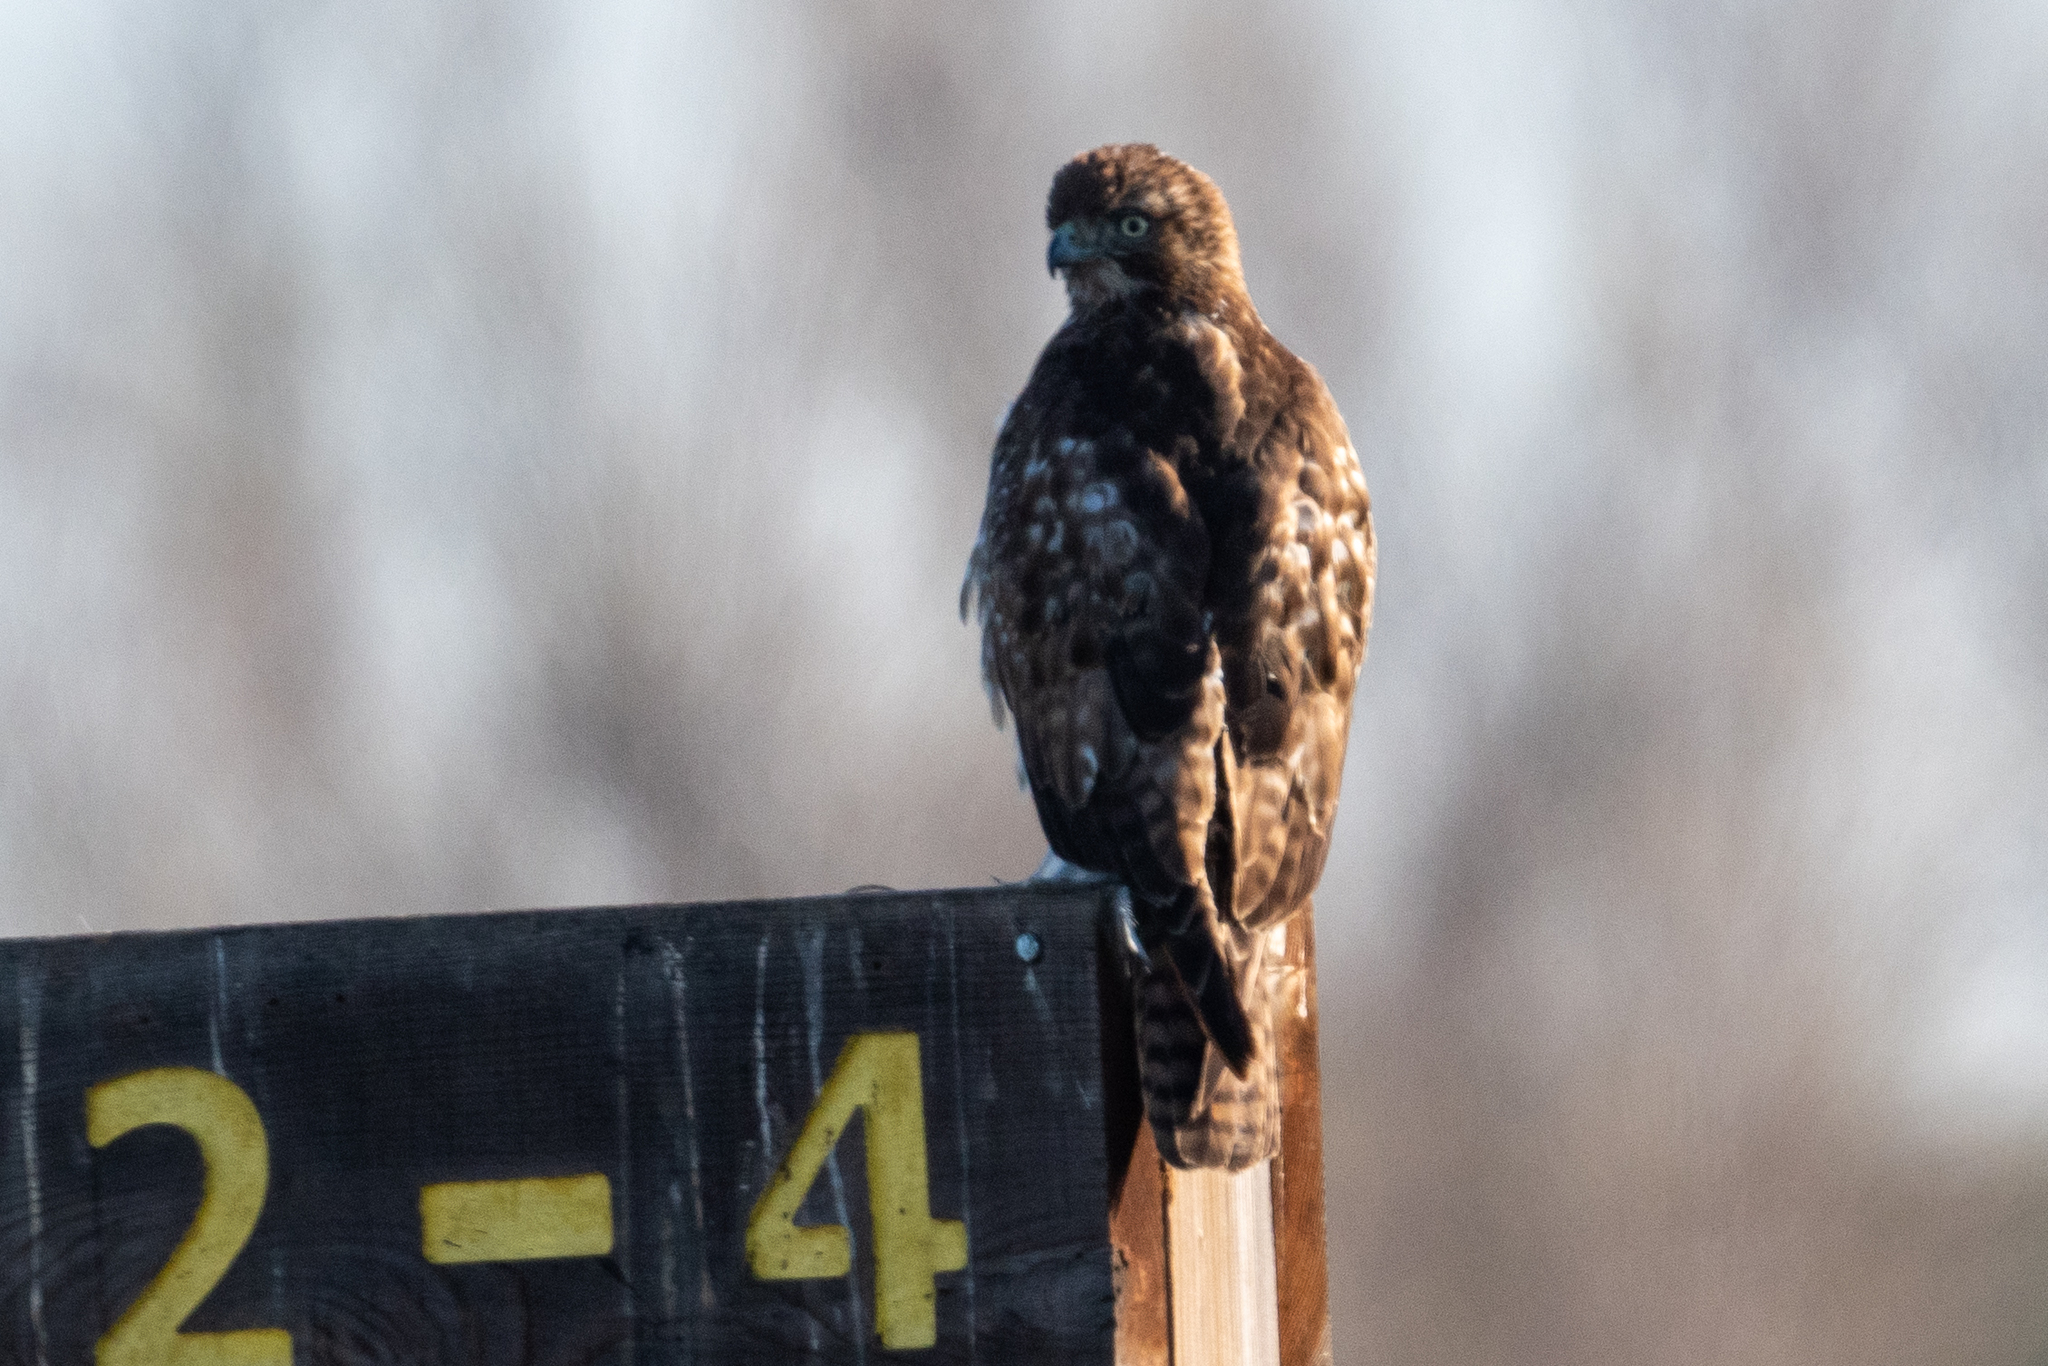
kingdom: Animalia
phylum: Chordata
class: Aves
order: Accipitriformes
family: Accipitridae
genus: Buteo
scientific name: Buteo jamaicensis
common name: Red-tailed hawk
